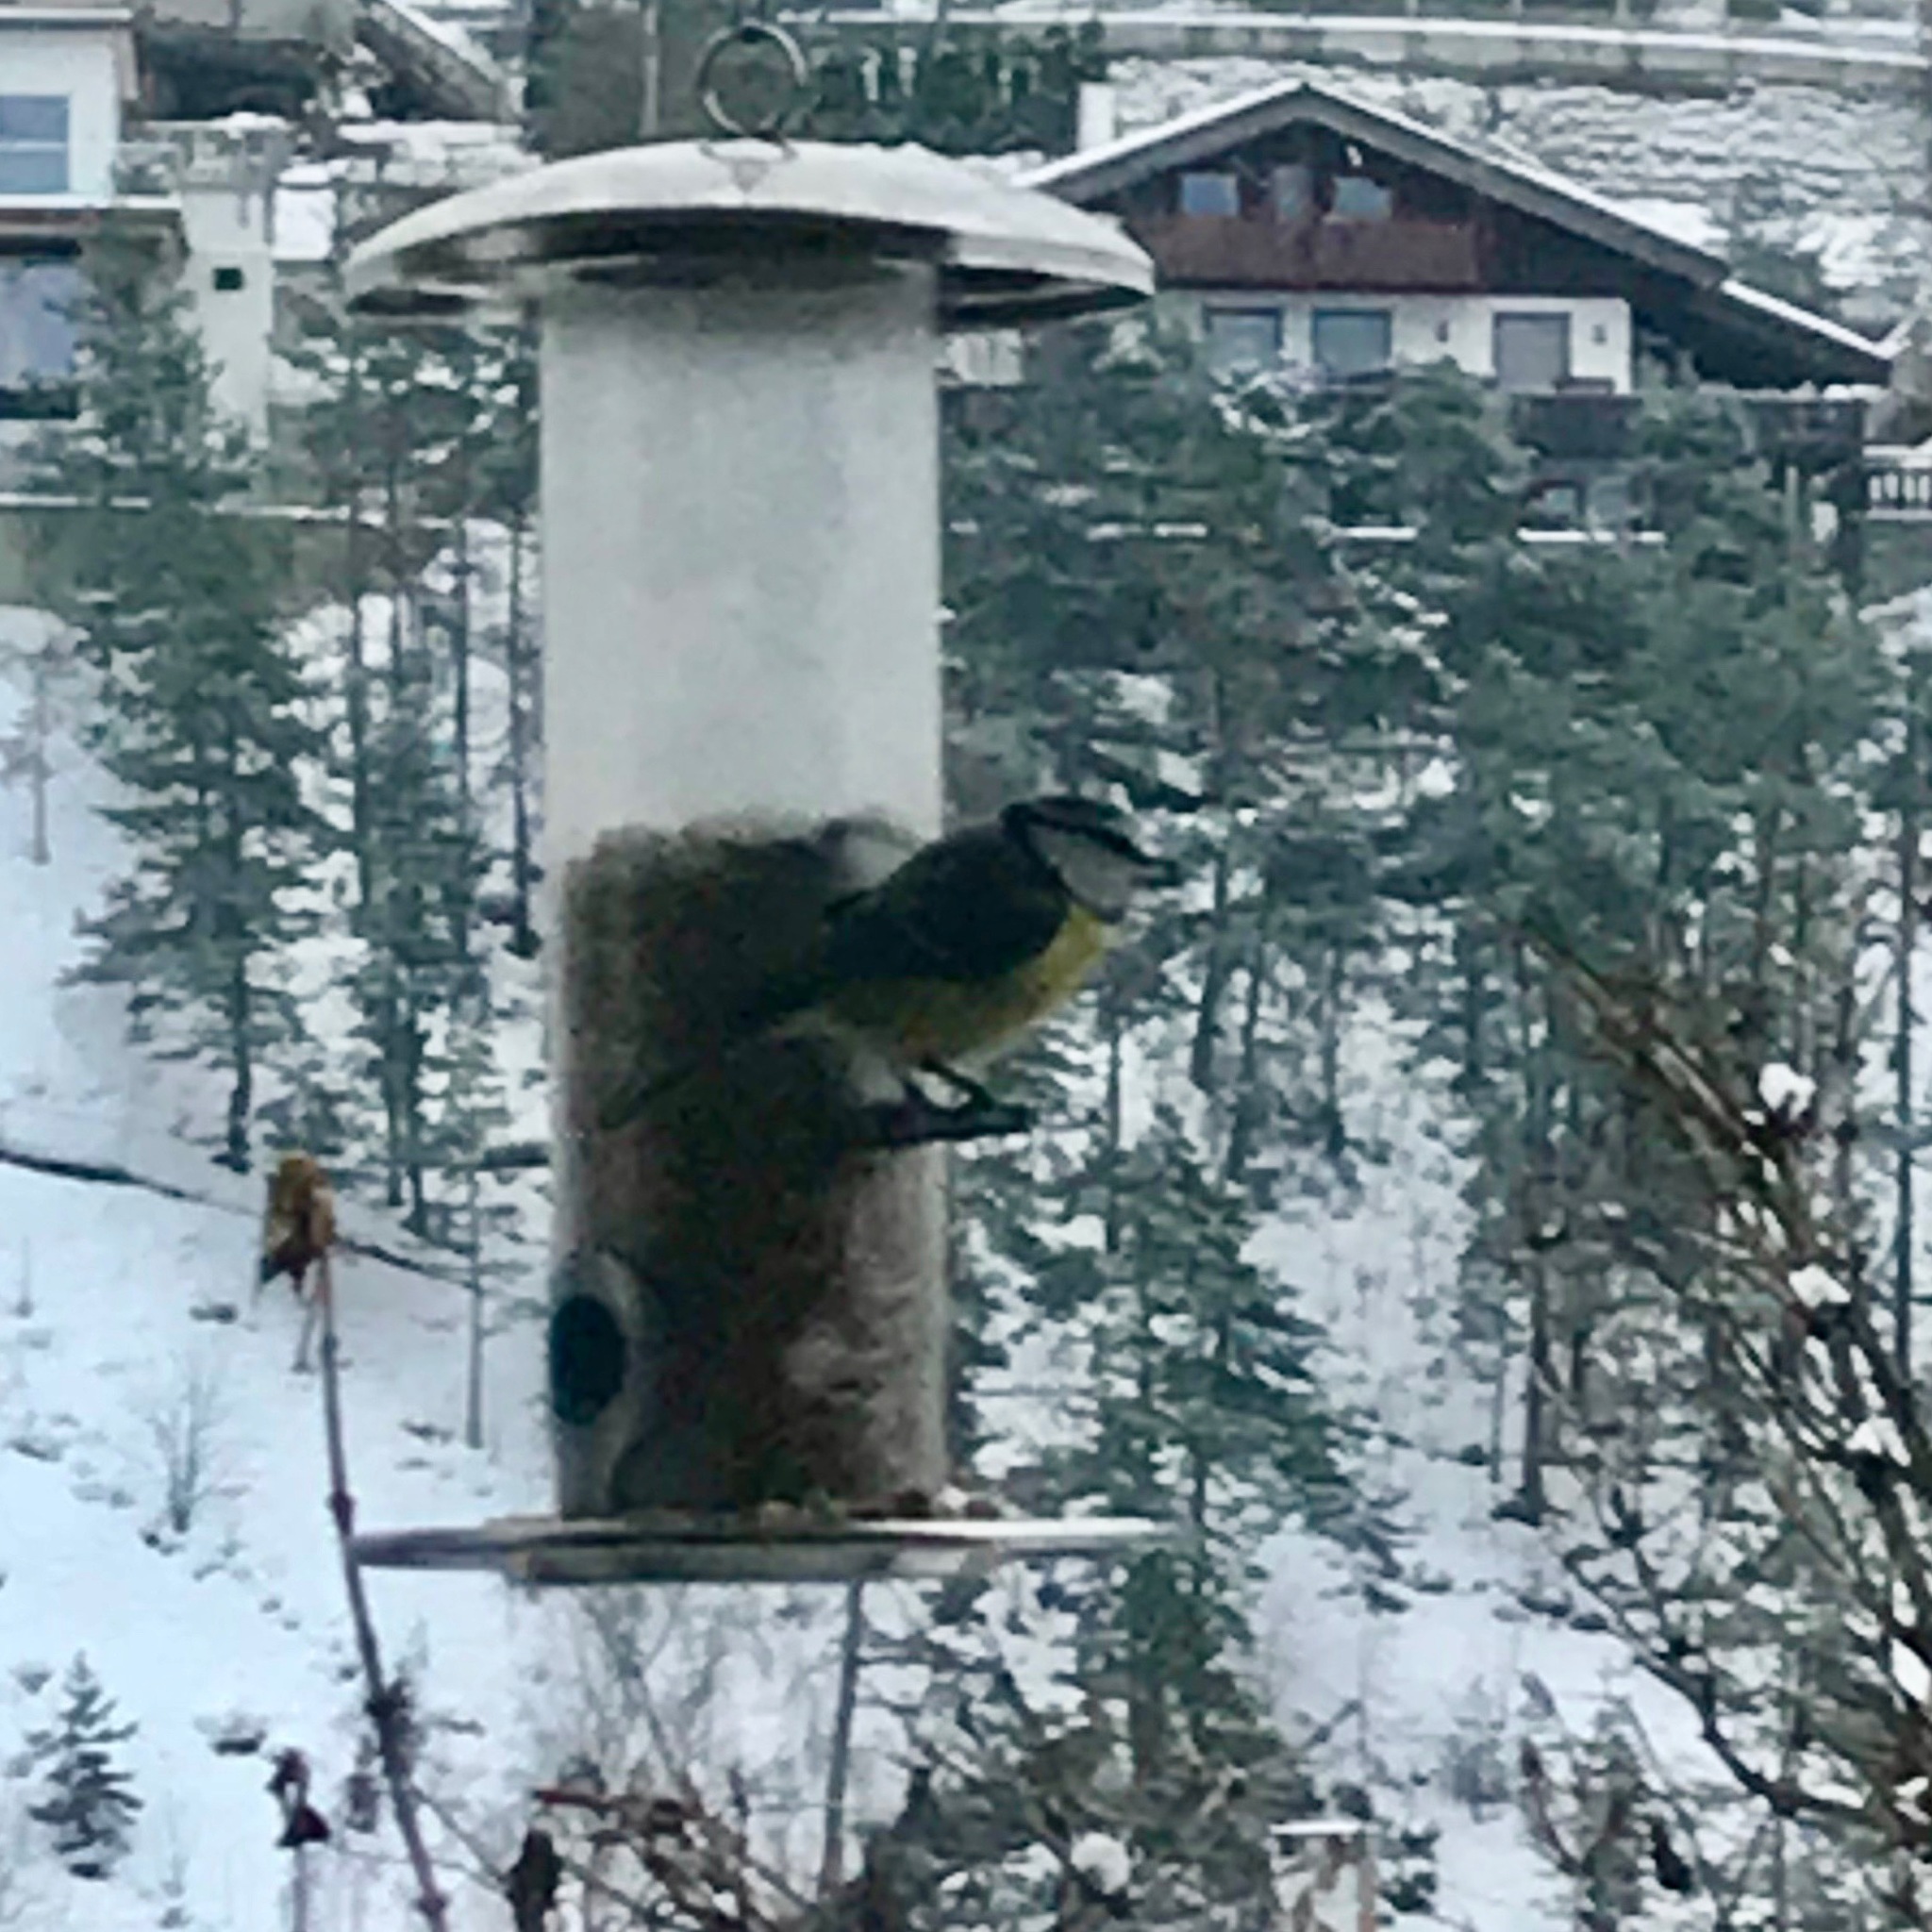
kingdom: Animalia
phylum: Chordata
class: Aves
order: Passeriformes
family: Paridae
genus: Cyanistes
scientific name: Cyanistes caeruleus
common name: Eurasian blue tit
